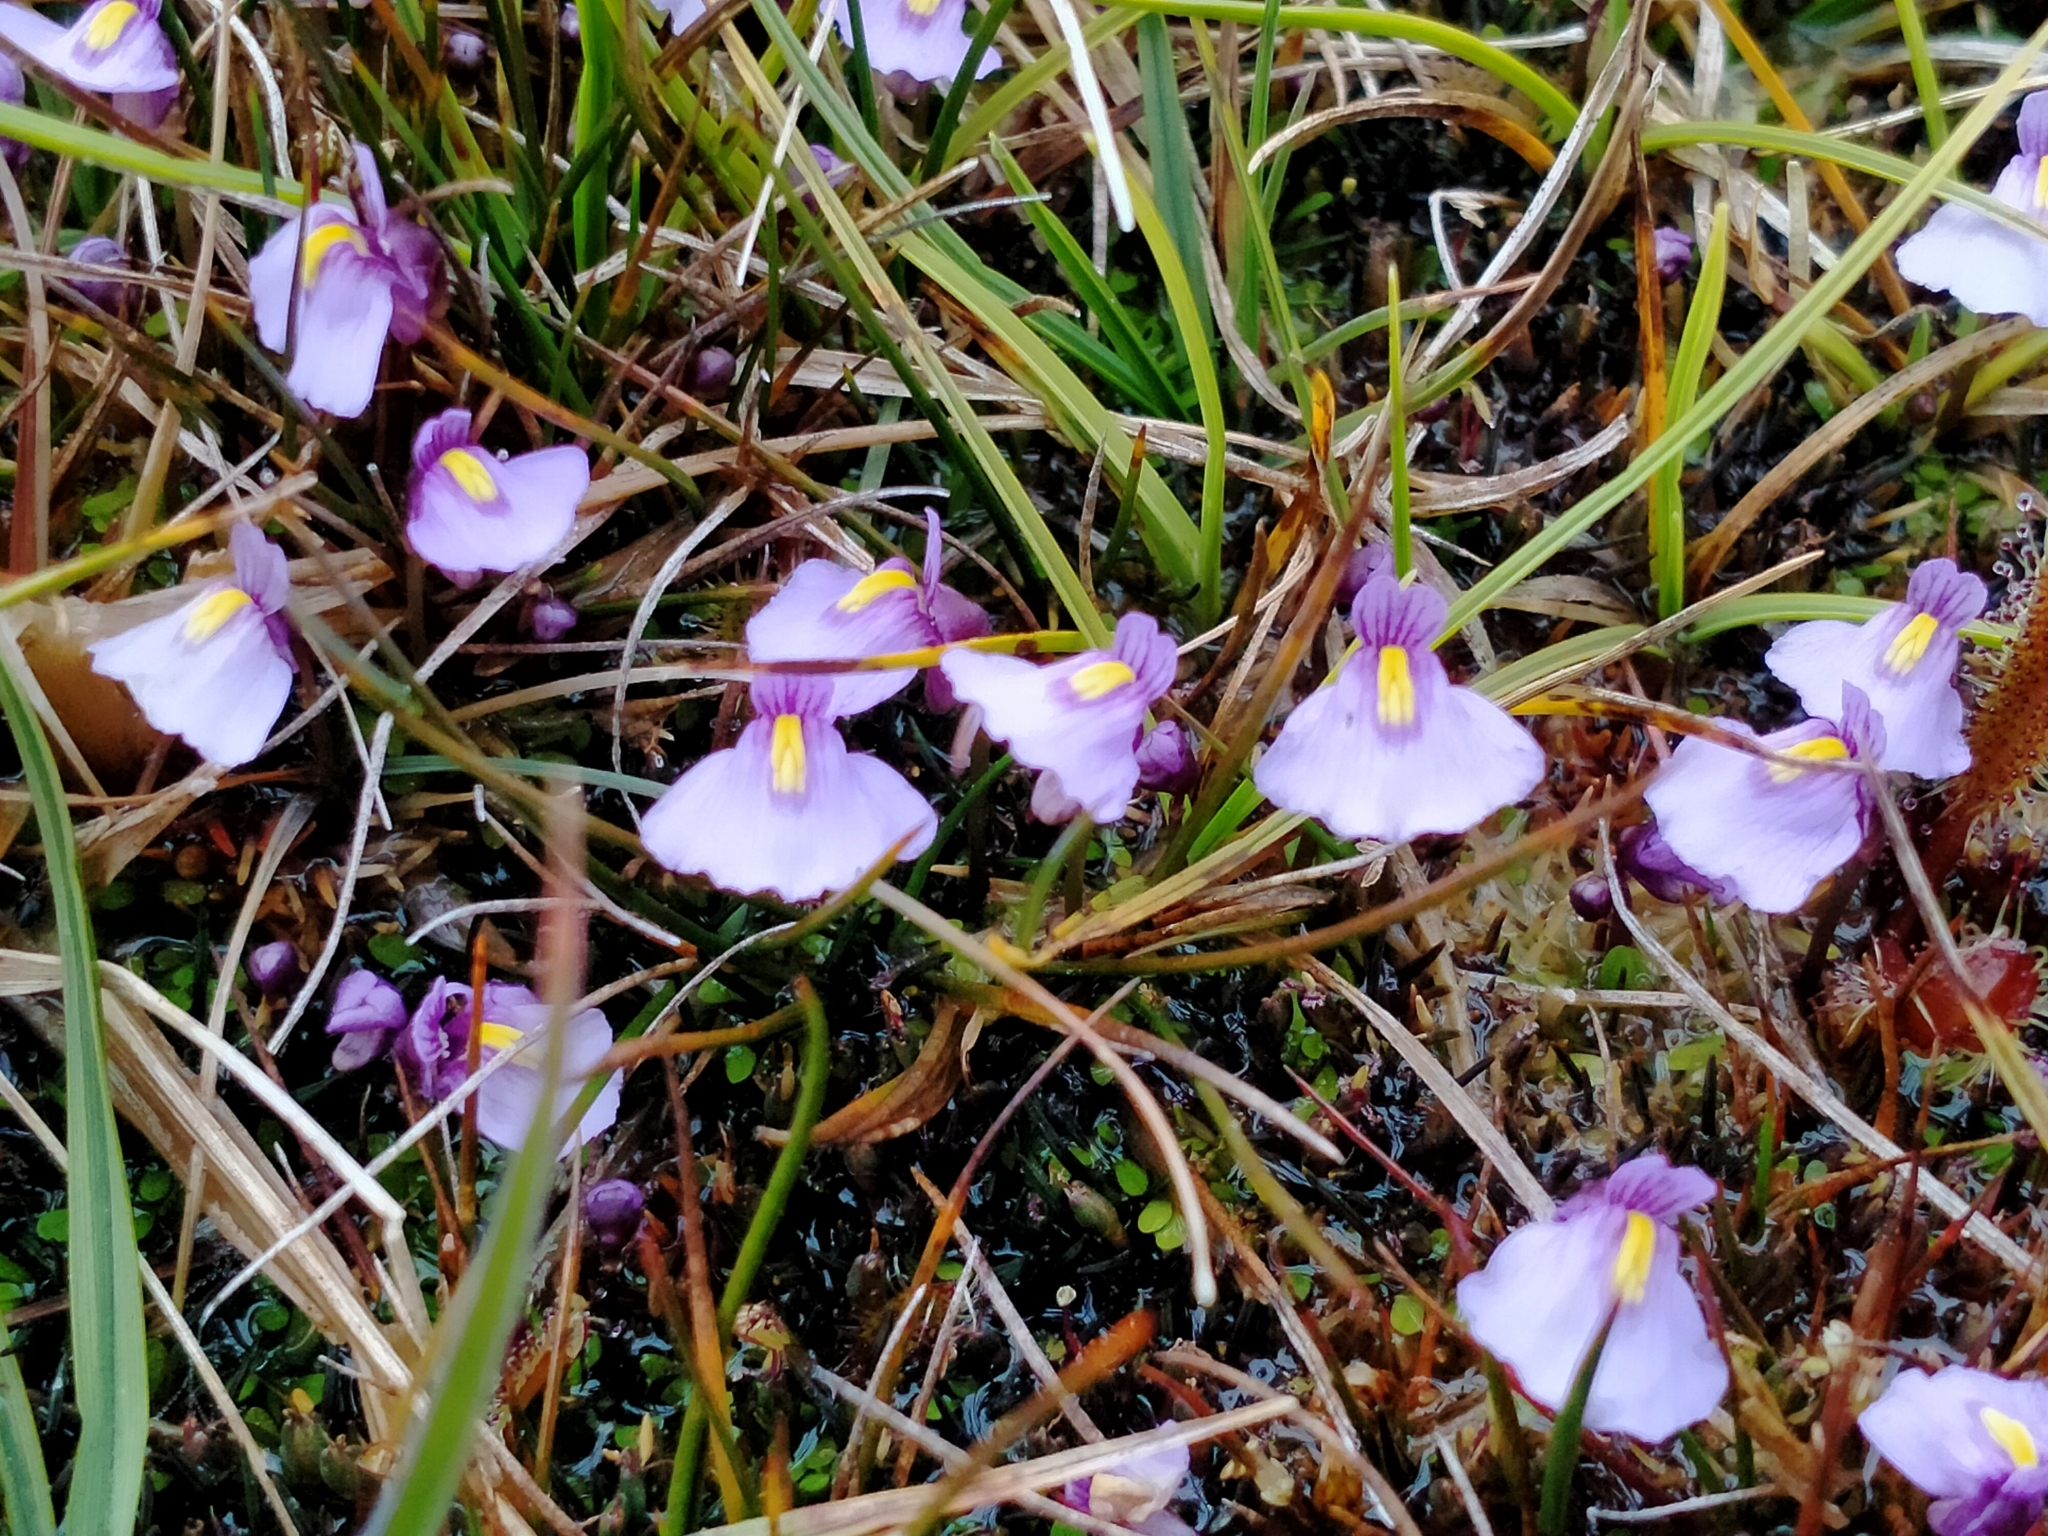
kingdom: Plantae
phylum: Tracheophyta
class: Magnoliopsida
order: Lamiales
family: Lentibulariaceae
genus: Utricularia
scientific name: Utricularia dichotoma
